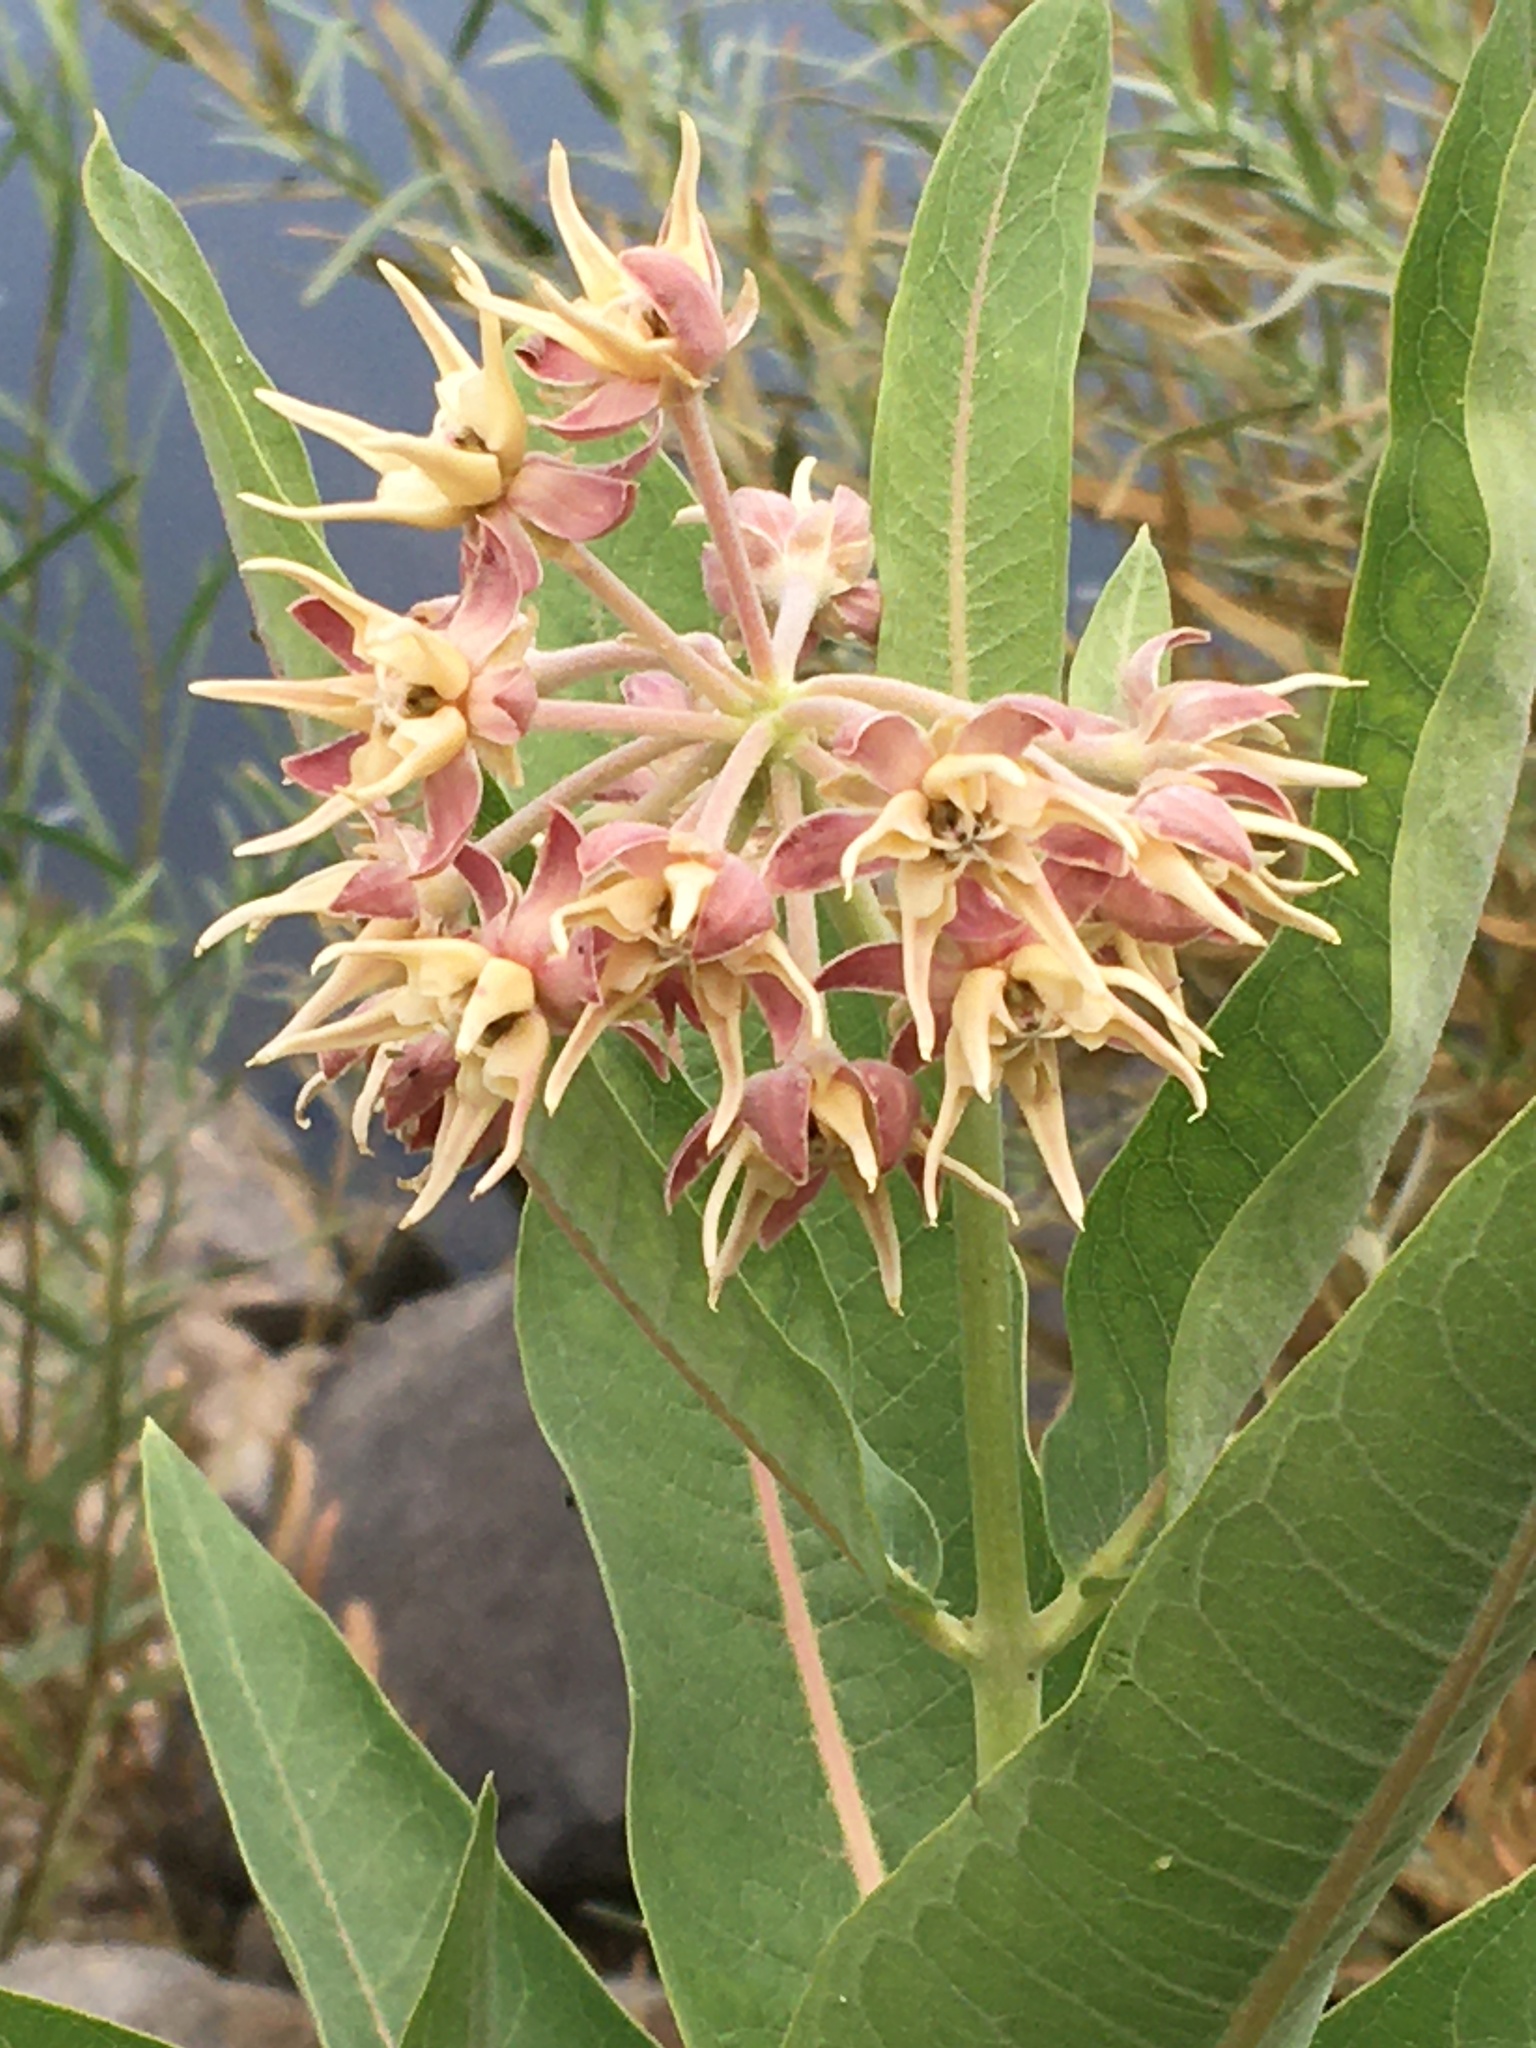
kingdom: Plantae
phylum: Tracheophyta
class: Magnoliopsida
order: Gentianales
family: Apocynaceae
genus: Asclepias
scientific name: Asclepias speciosa
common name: Showy milkweed
